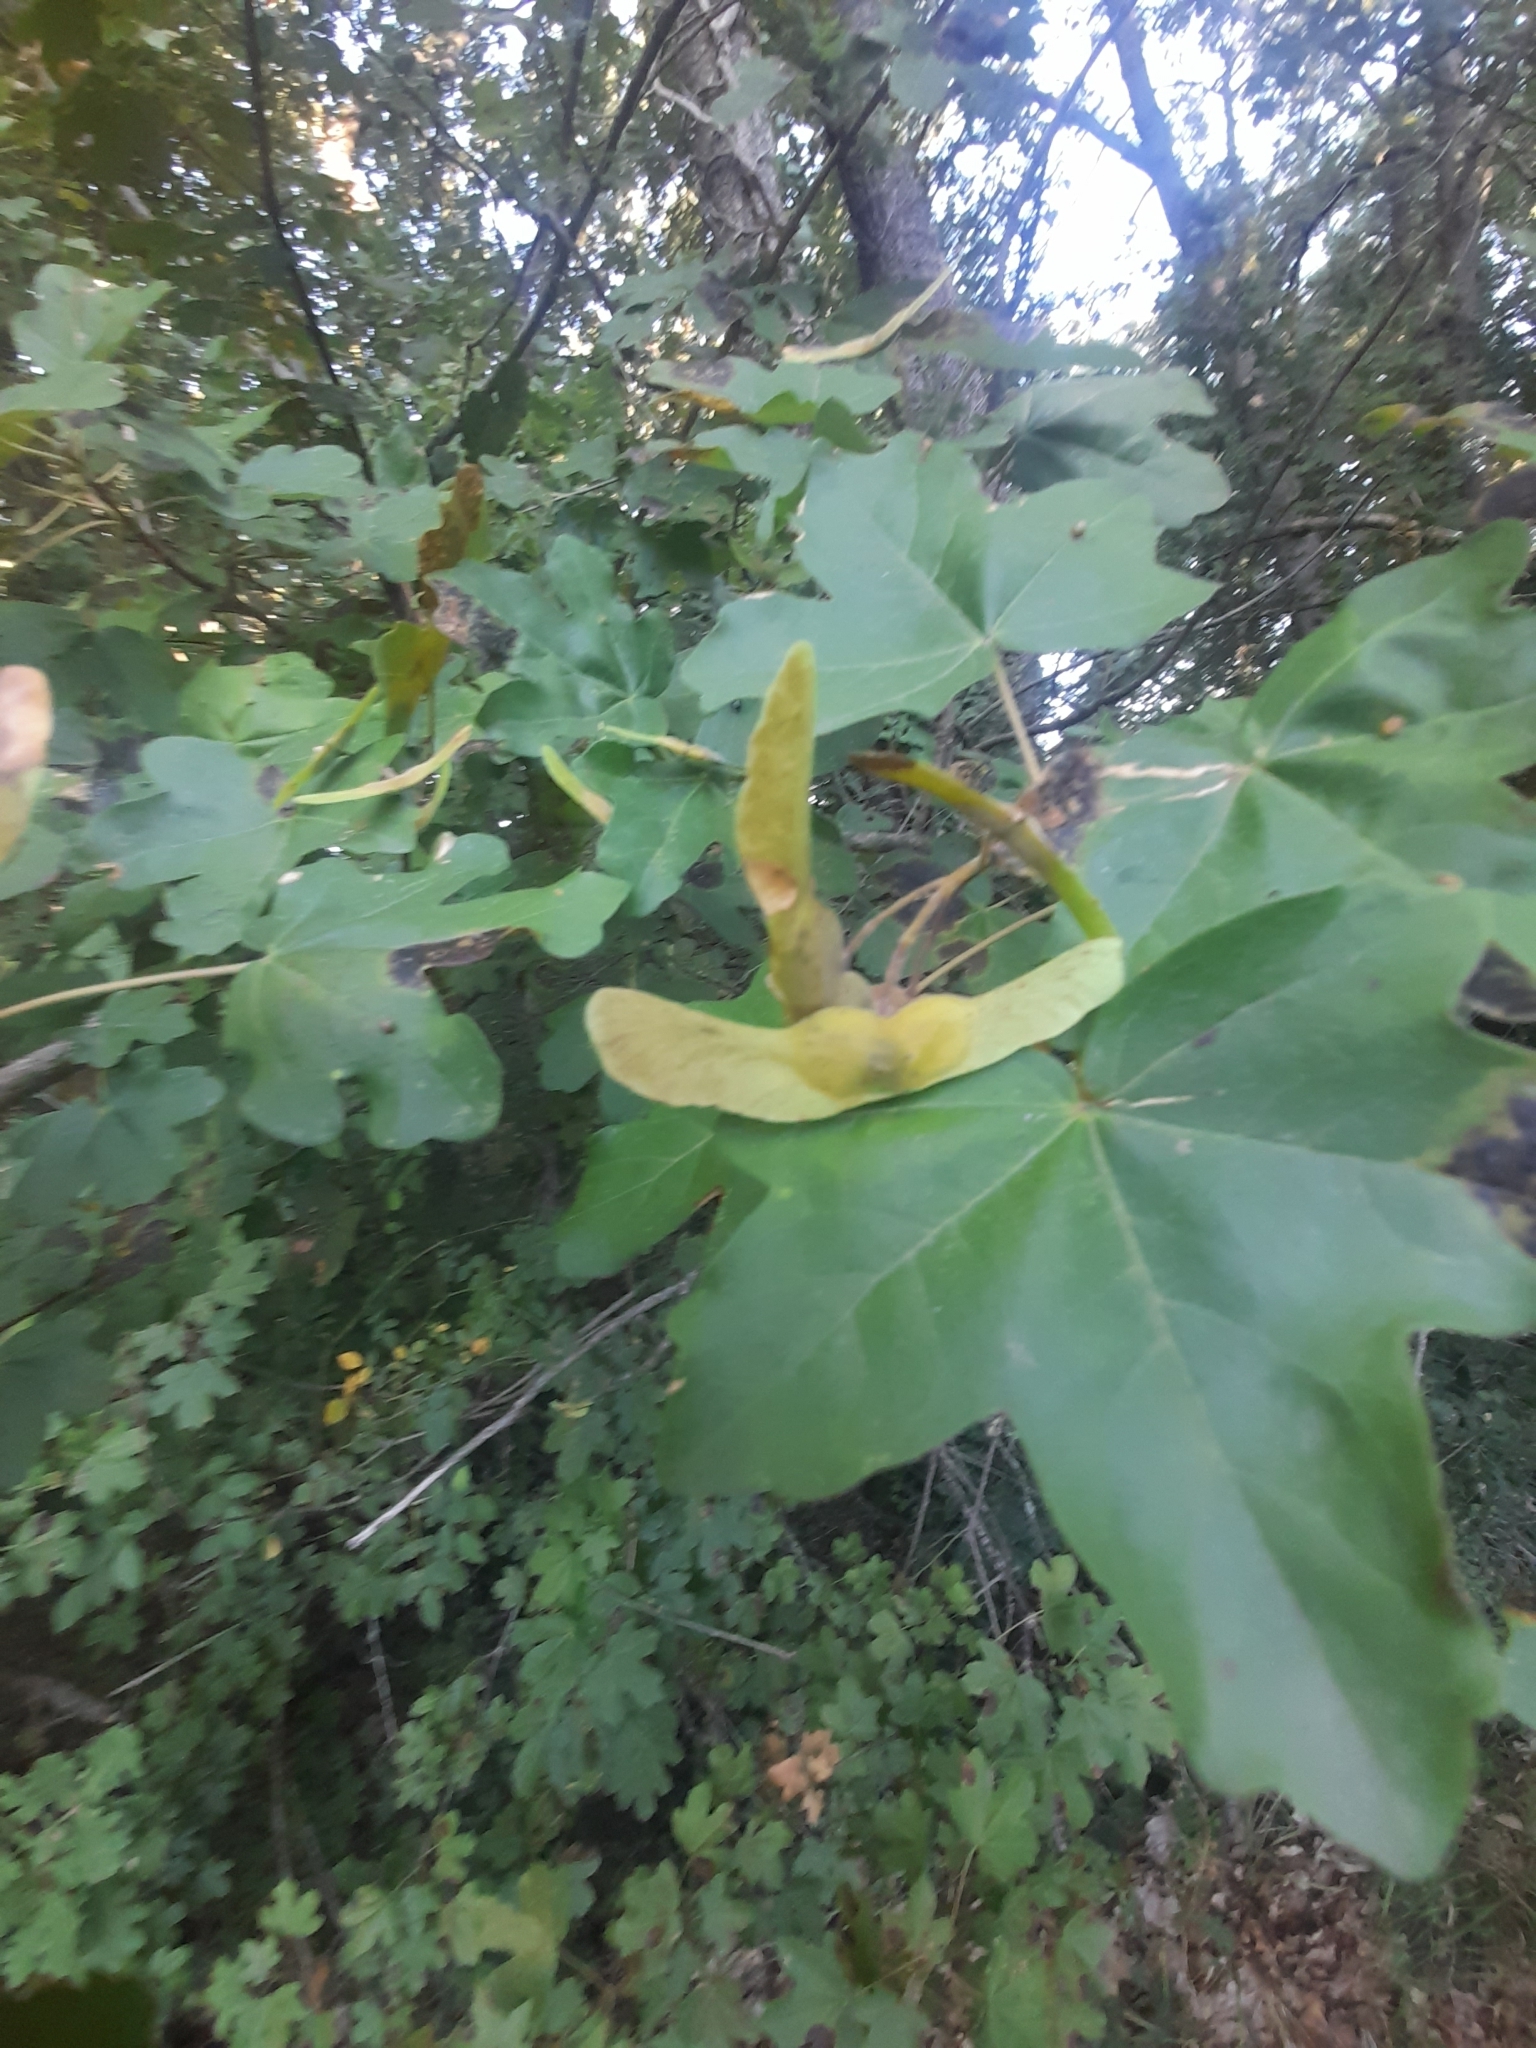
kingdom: Plantae
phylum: Tracheophyta
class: Magnoliopsida
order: Sapindales
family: Sapindaceae
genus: Acer
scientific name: Acer campestre
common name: Field maple
